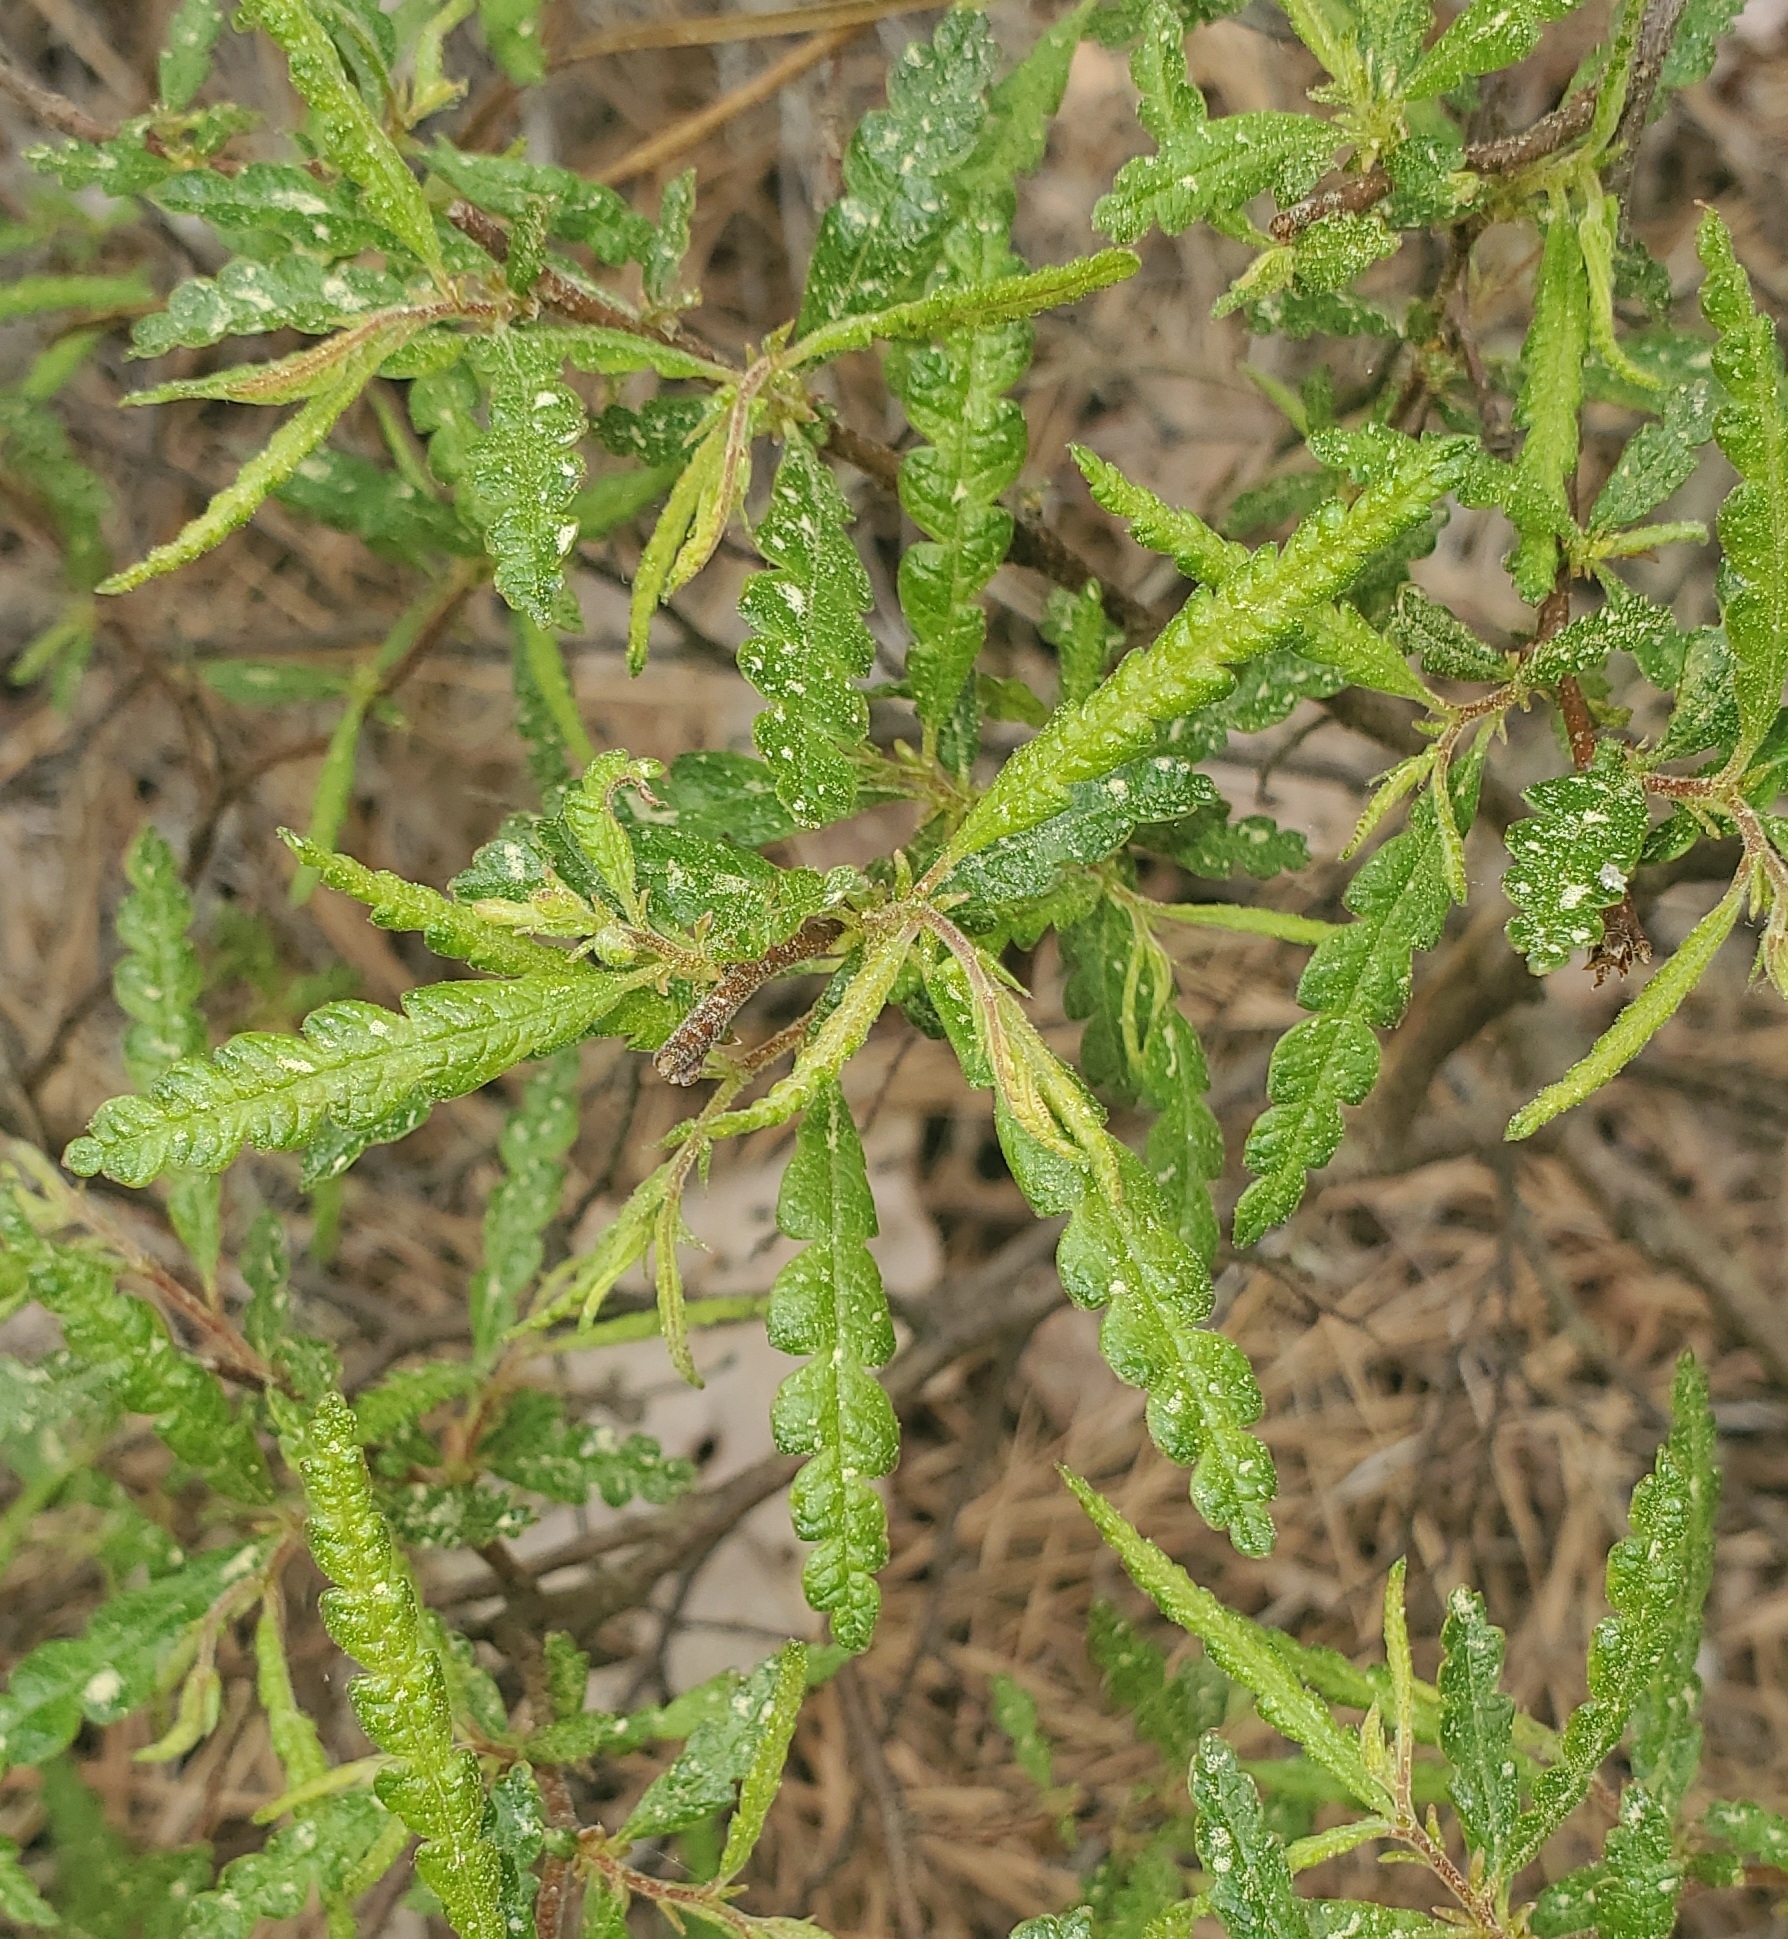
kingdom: Plantae
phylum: Tracheophyta
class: Magnoliopsida
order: Fagales
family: Myricaceae
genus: Comptonia
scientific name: Comptonia peregrina
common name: Sweet-fern
